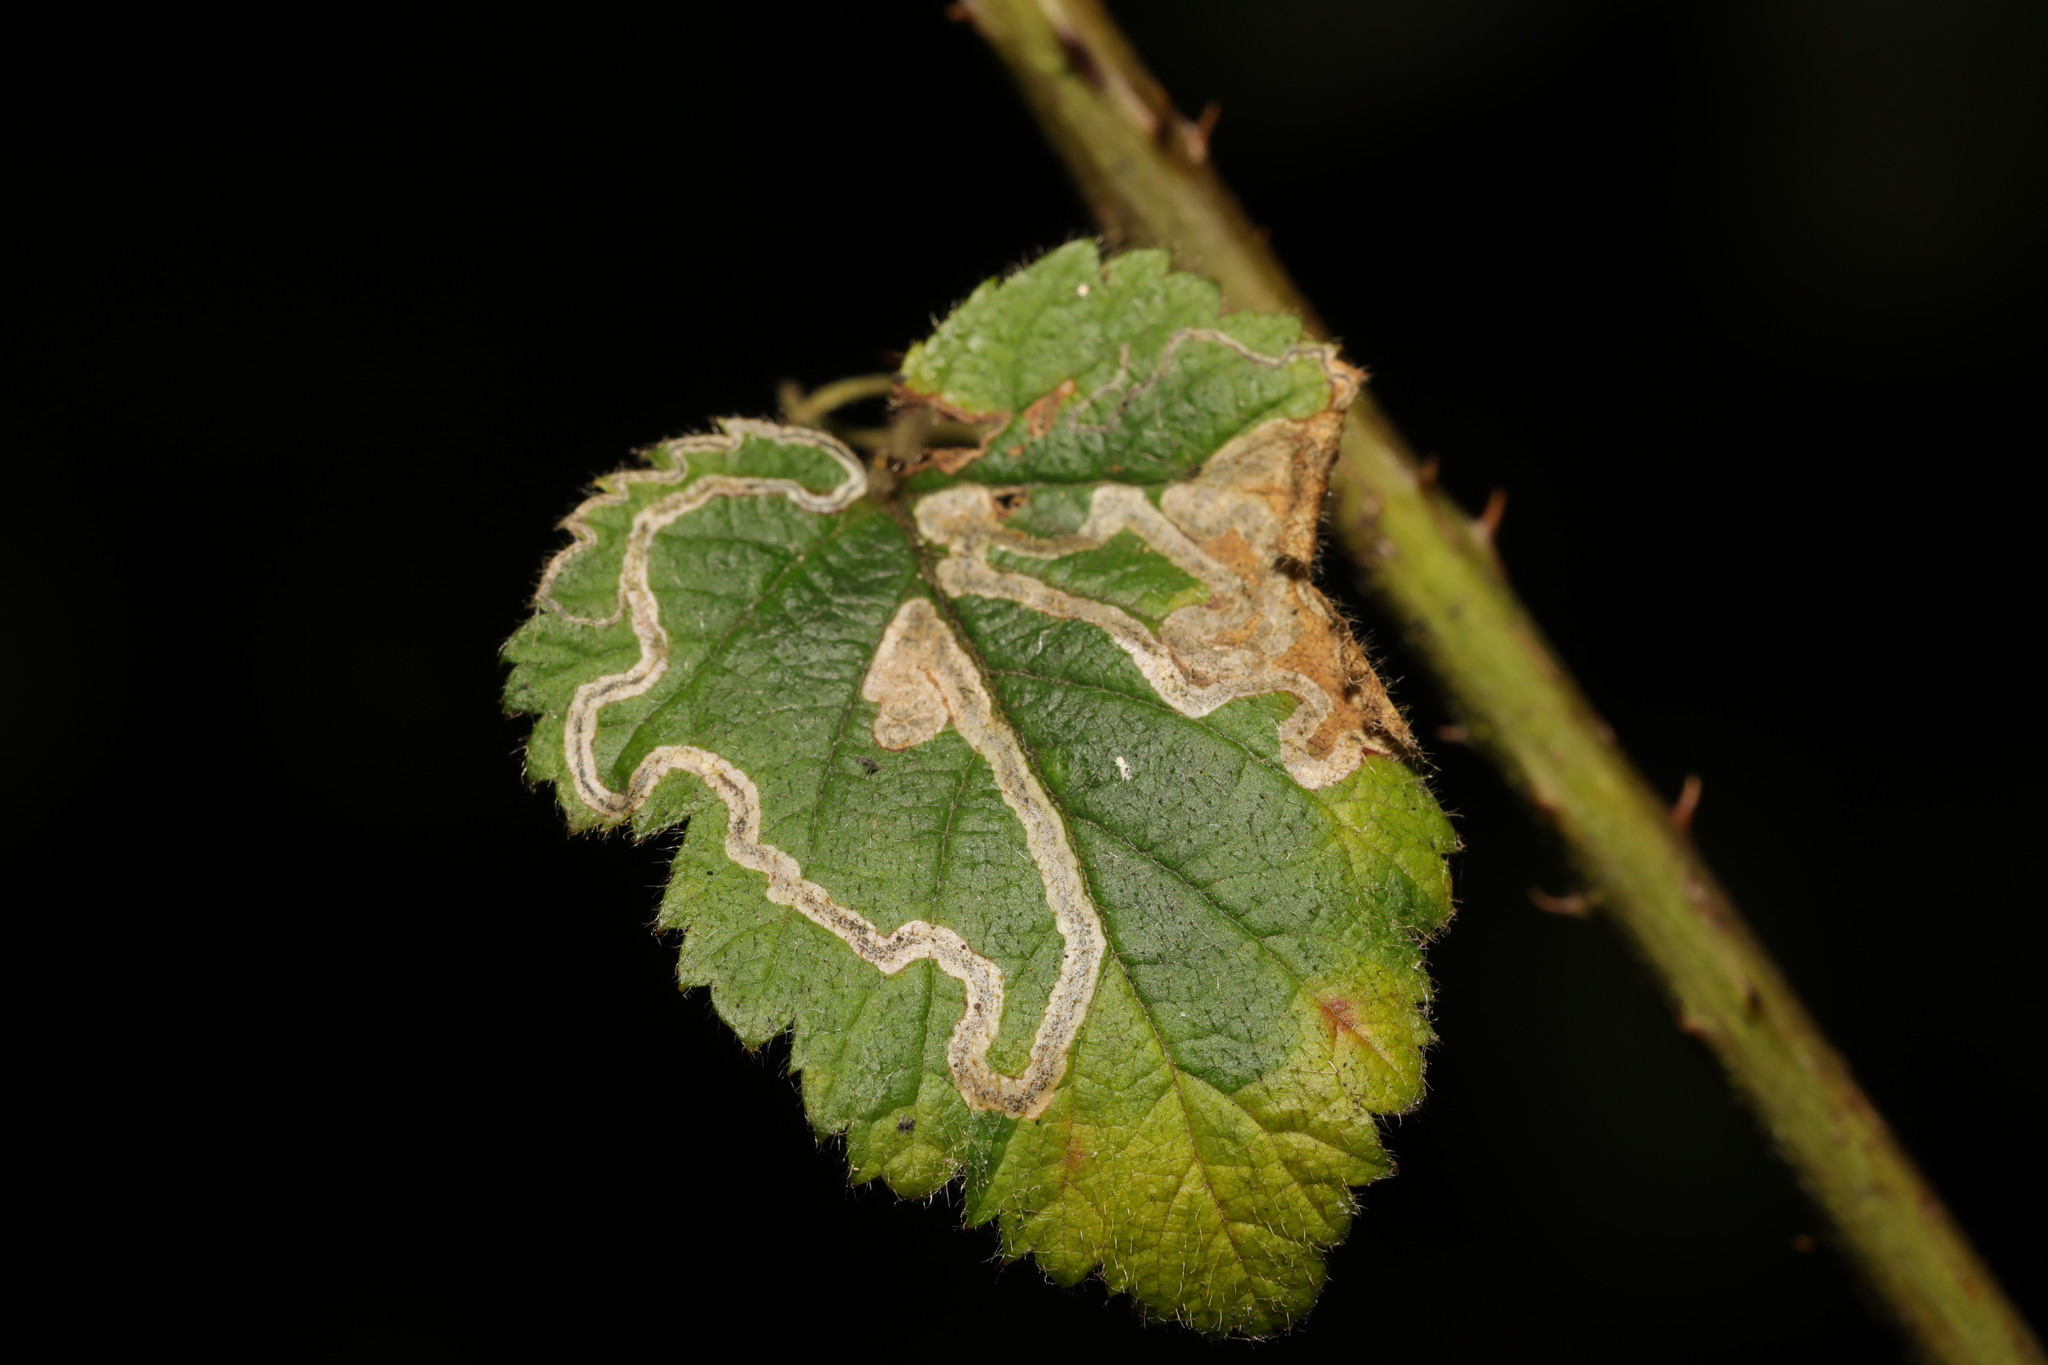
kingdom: Animalia
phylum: Arthropoda
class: Insecta
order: Lepidoptera
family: Nepticulidae
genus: Stigmella
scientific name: Stigmella aurella
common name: Golden pigmy
